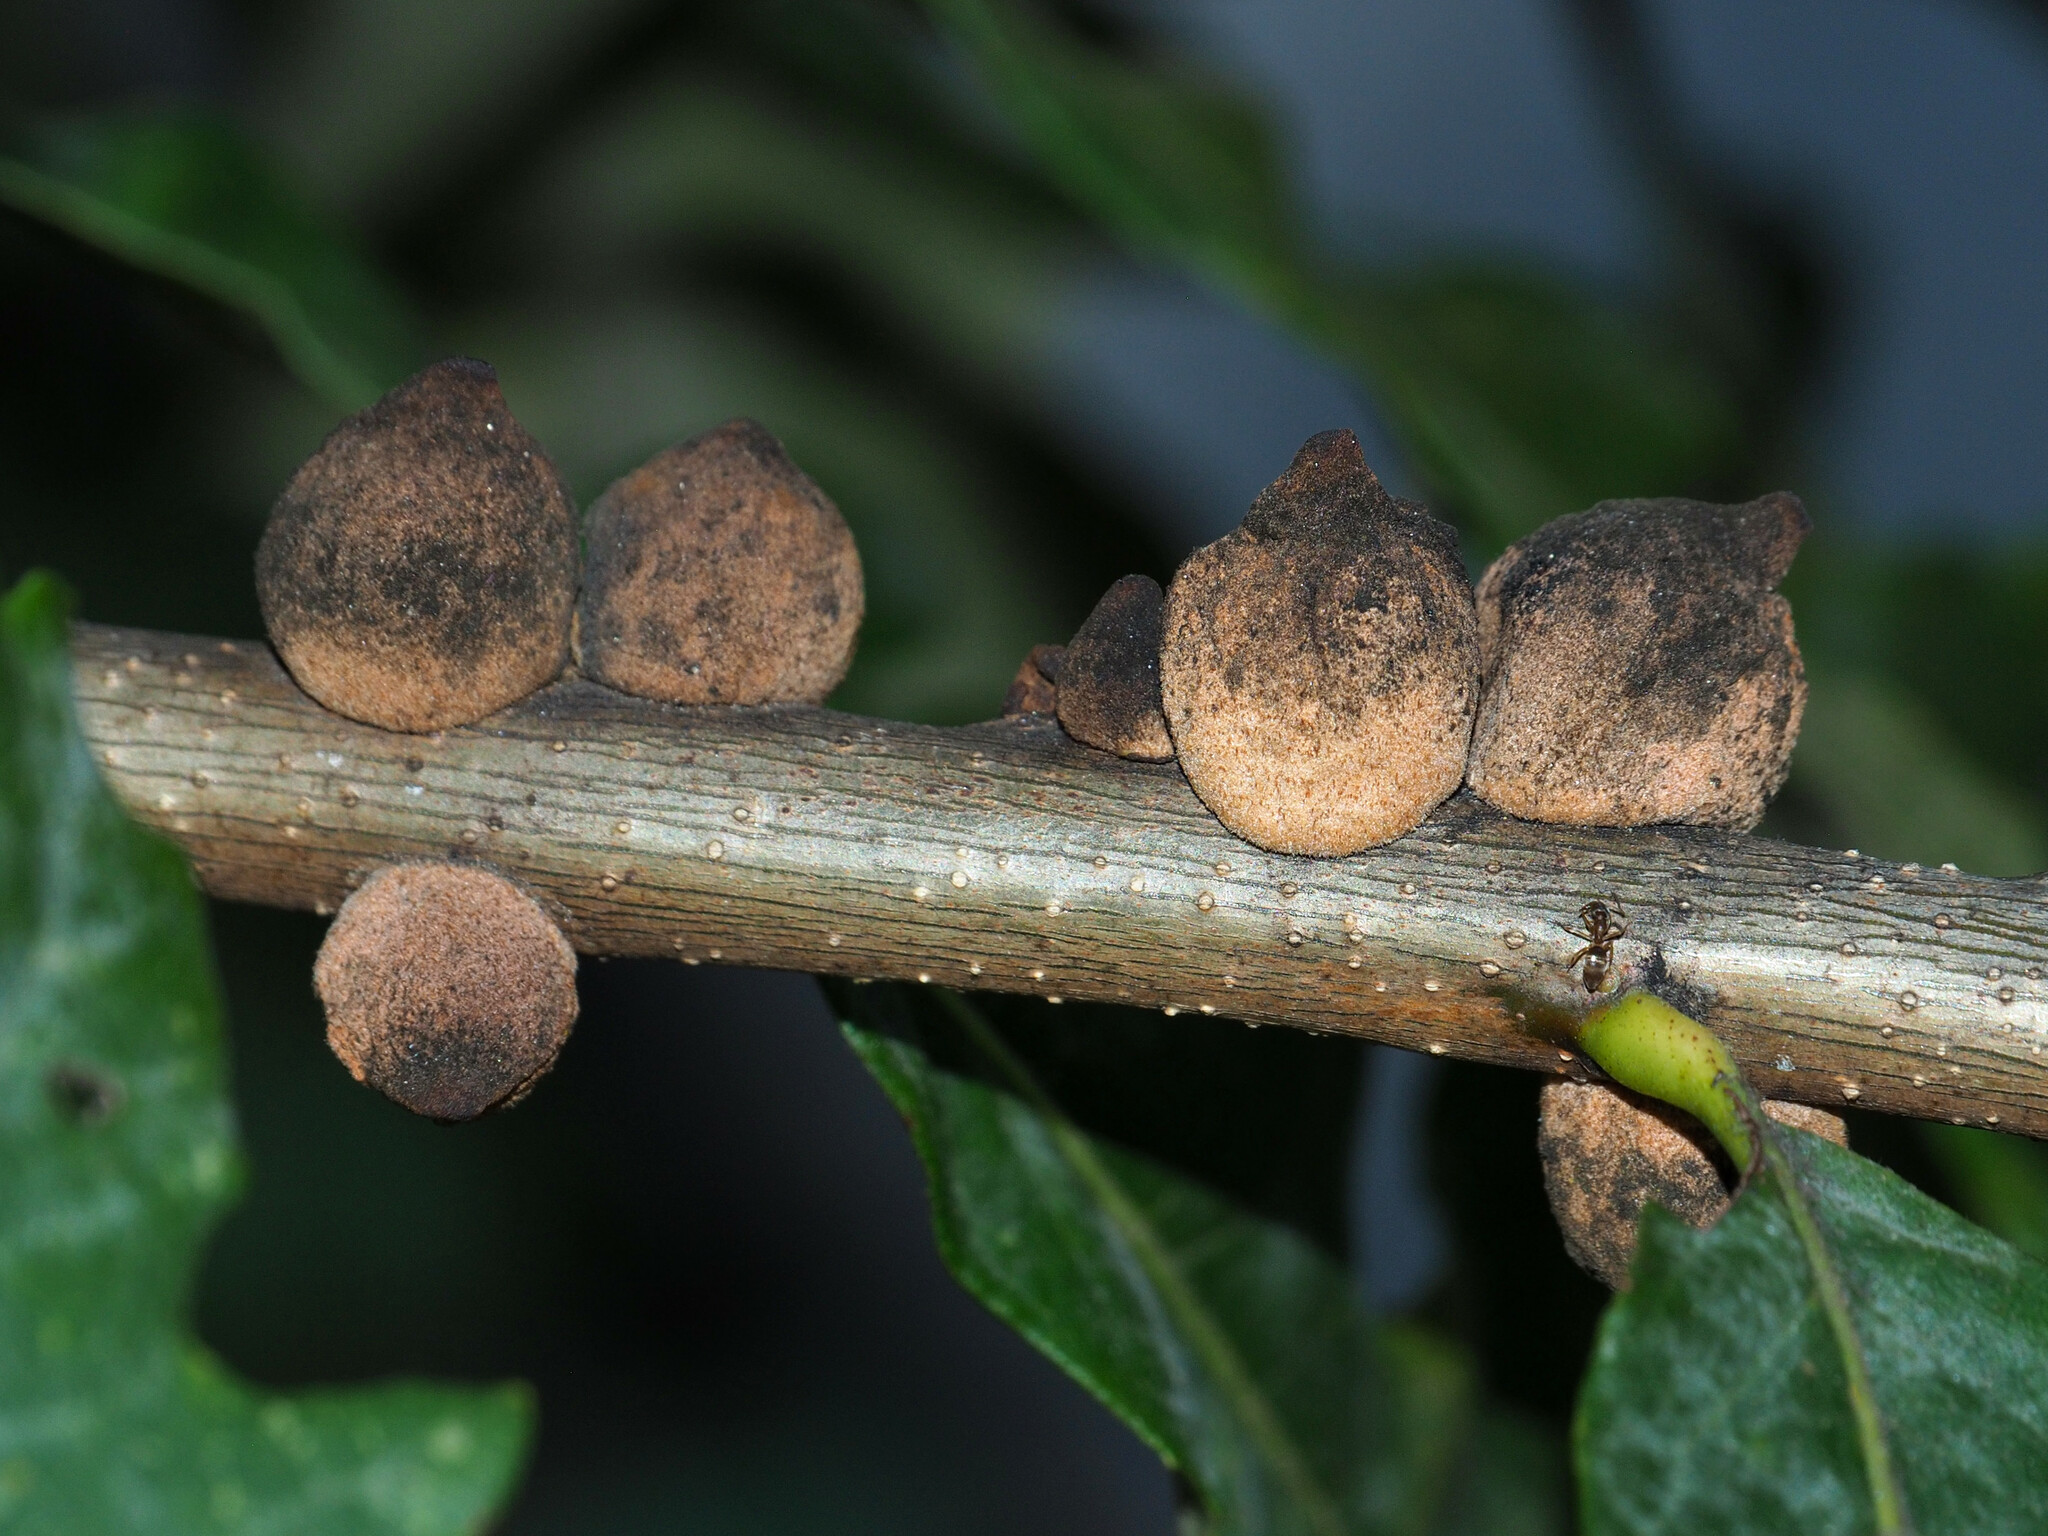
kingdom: Animalia
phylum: Arthropoda
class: Insecta
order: Hymenoptera
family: Cynipidae
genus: Disholcaspis
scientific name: Disholcaspis
